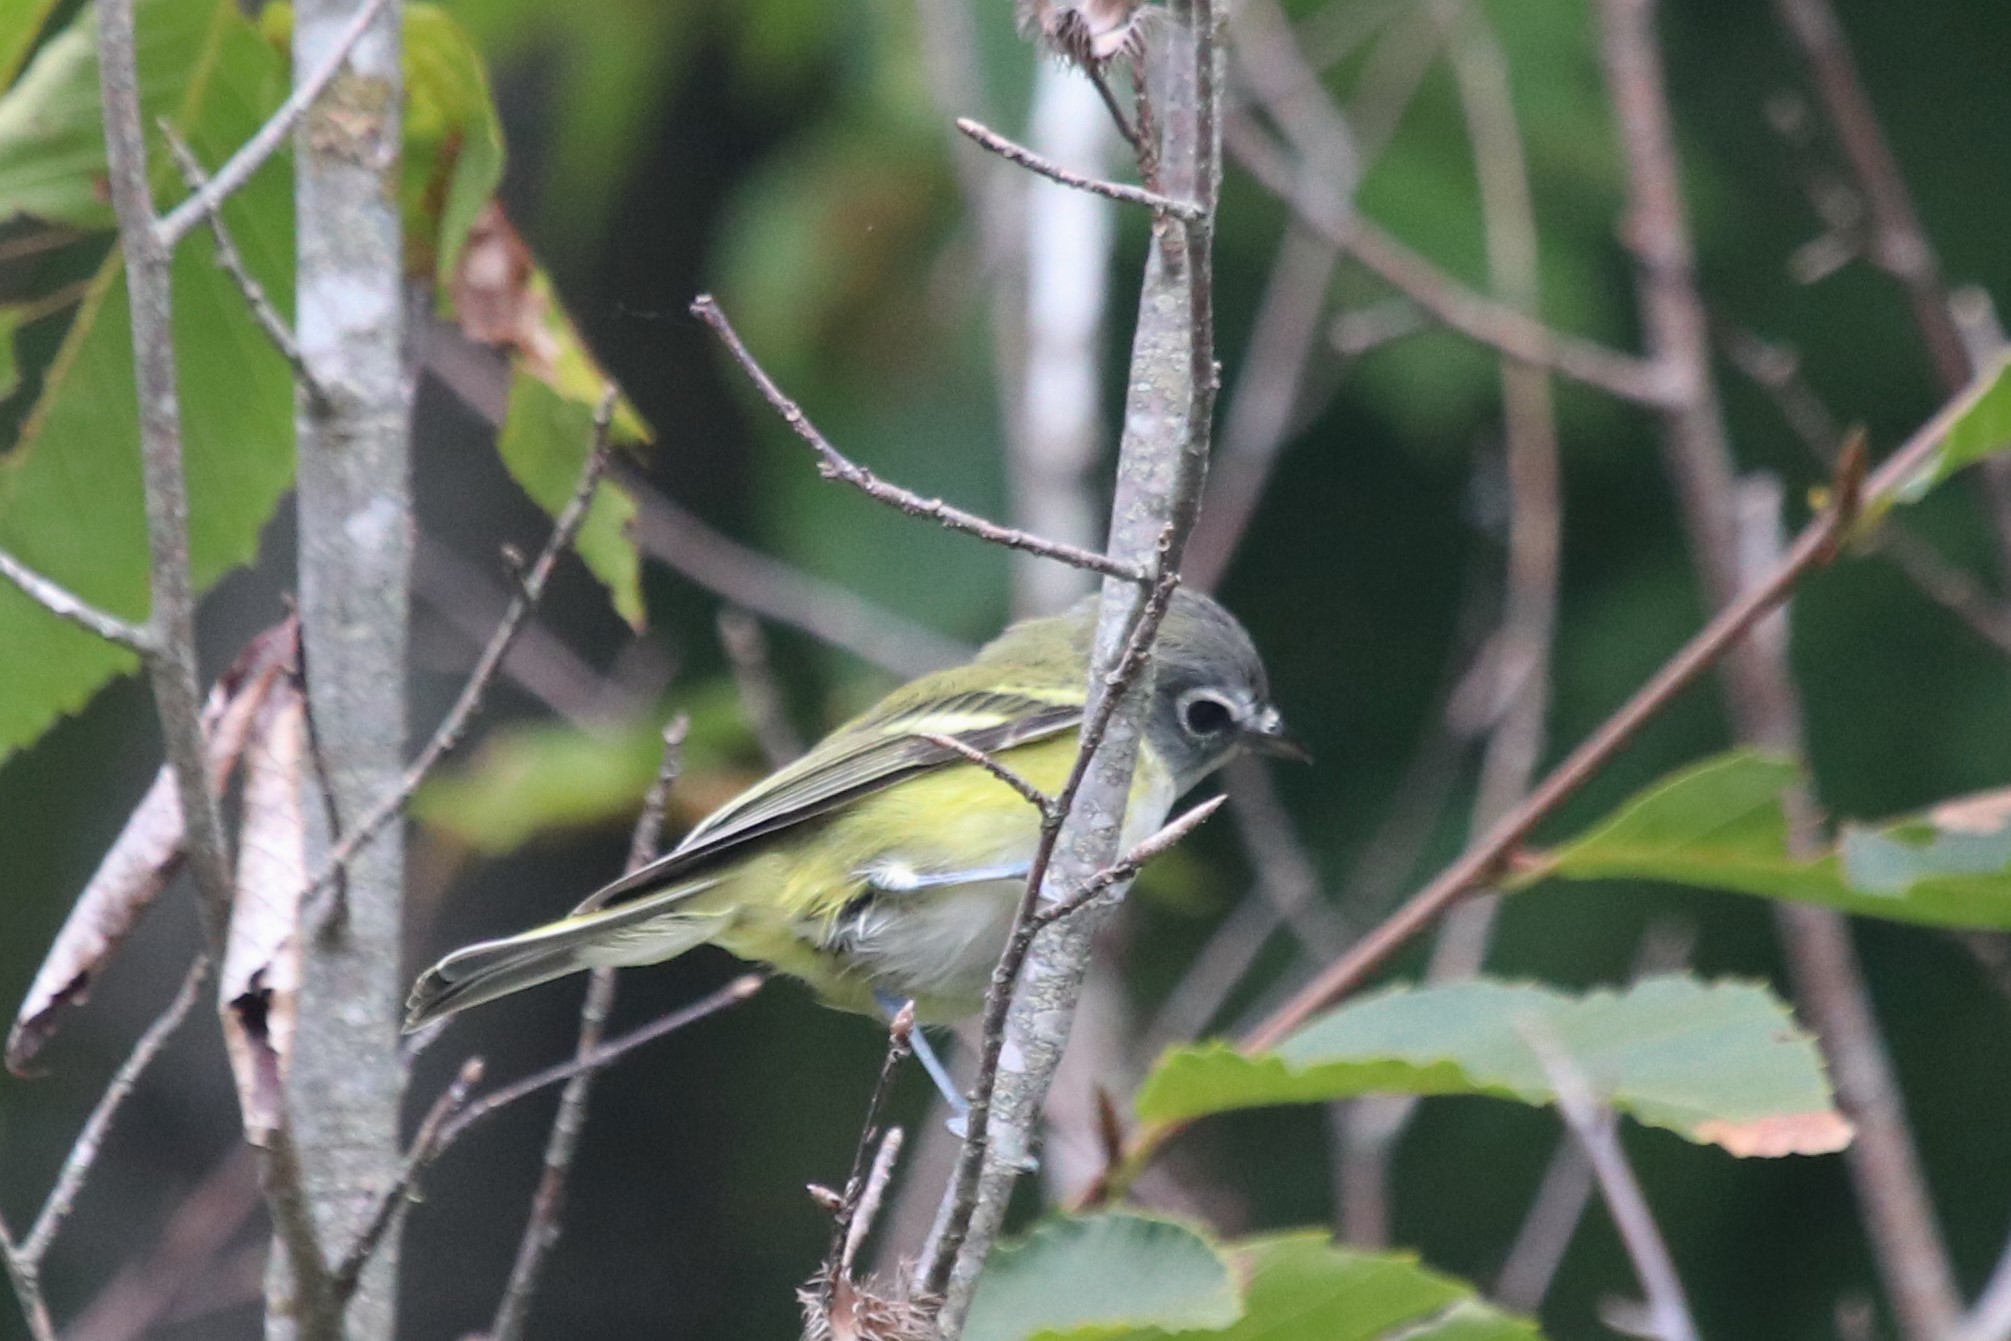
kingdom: Animalia
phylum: Chordata
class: Aves
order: Passeriformes
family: Vireonidae
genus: Vireo
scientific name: Vireo solitarius
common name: Blue-headed vireo
